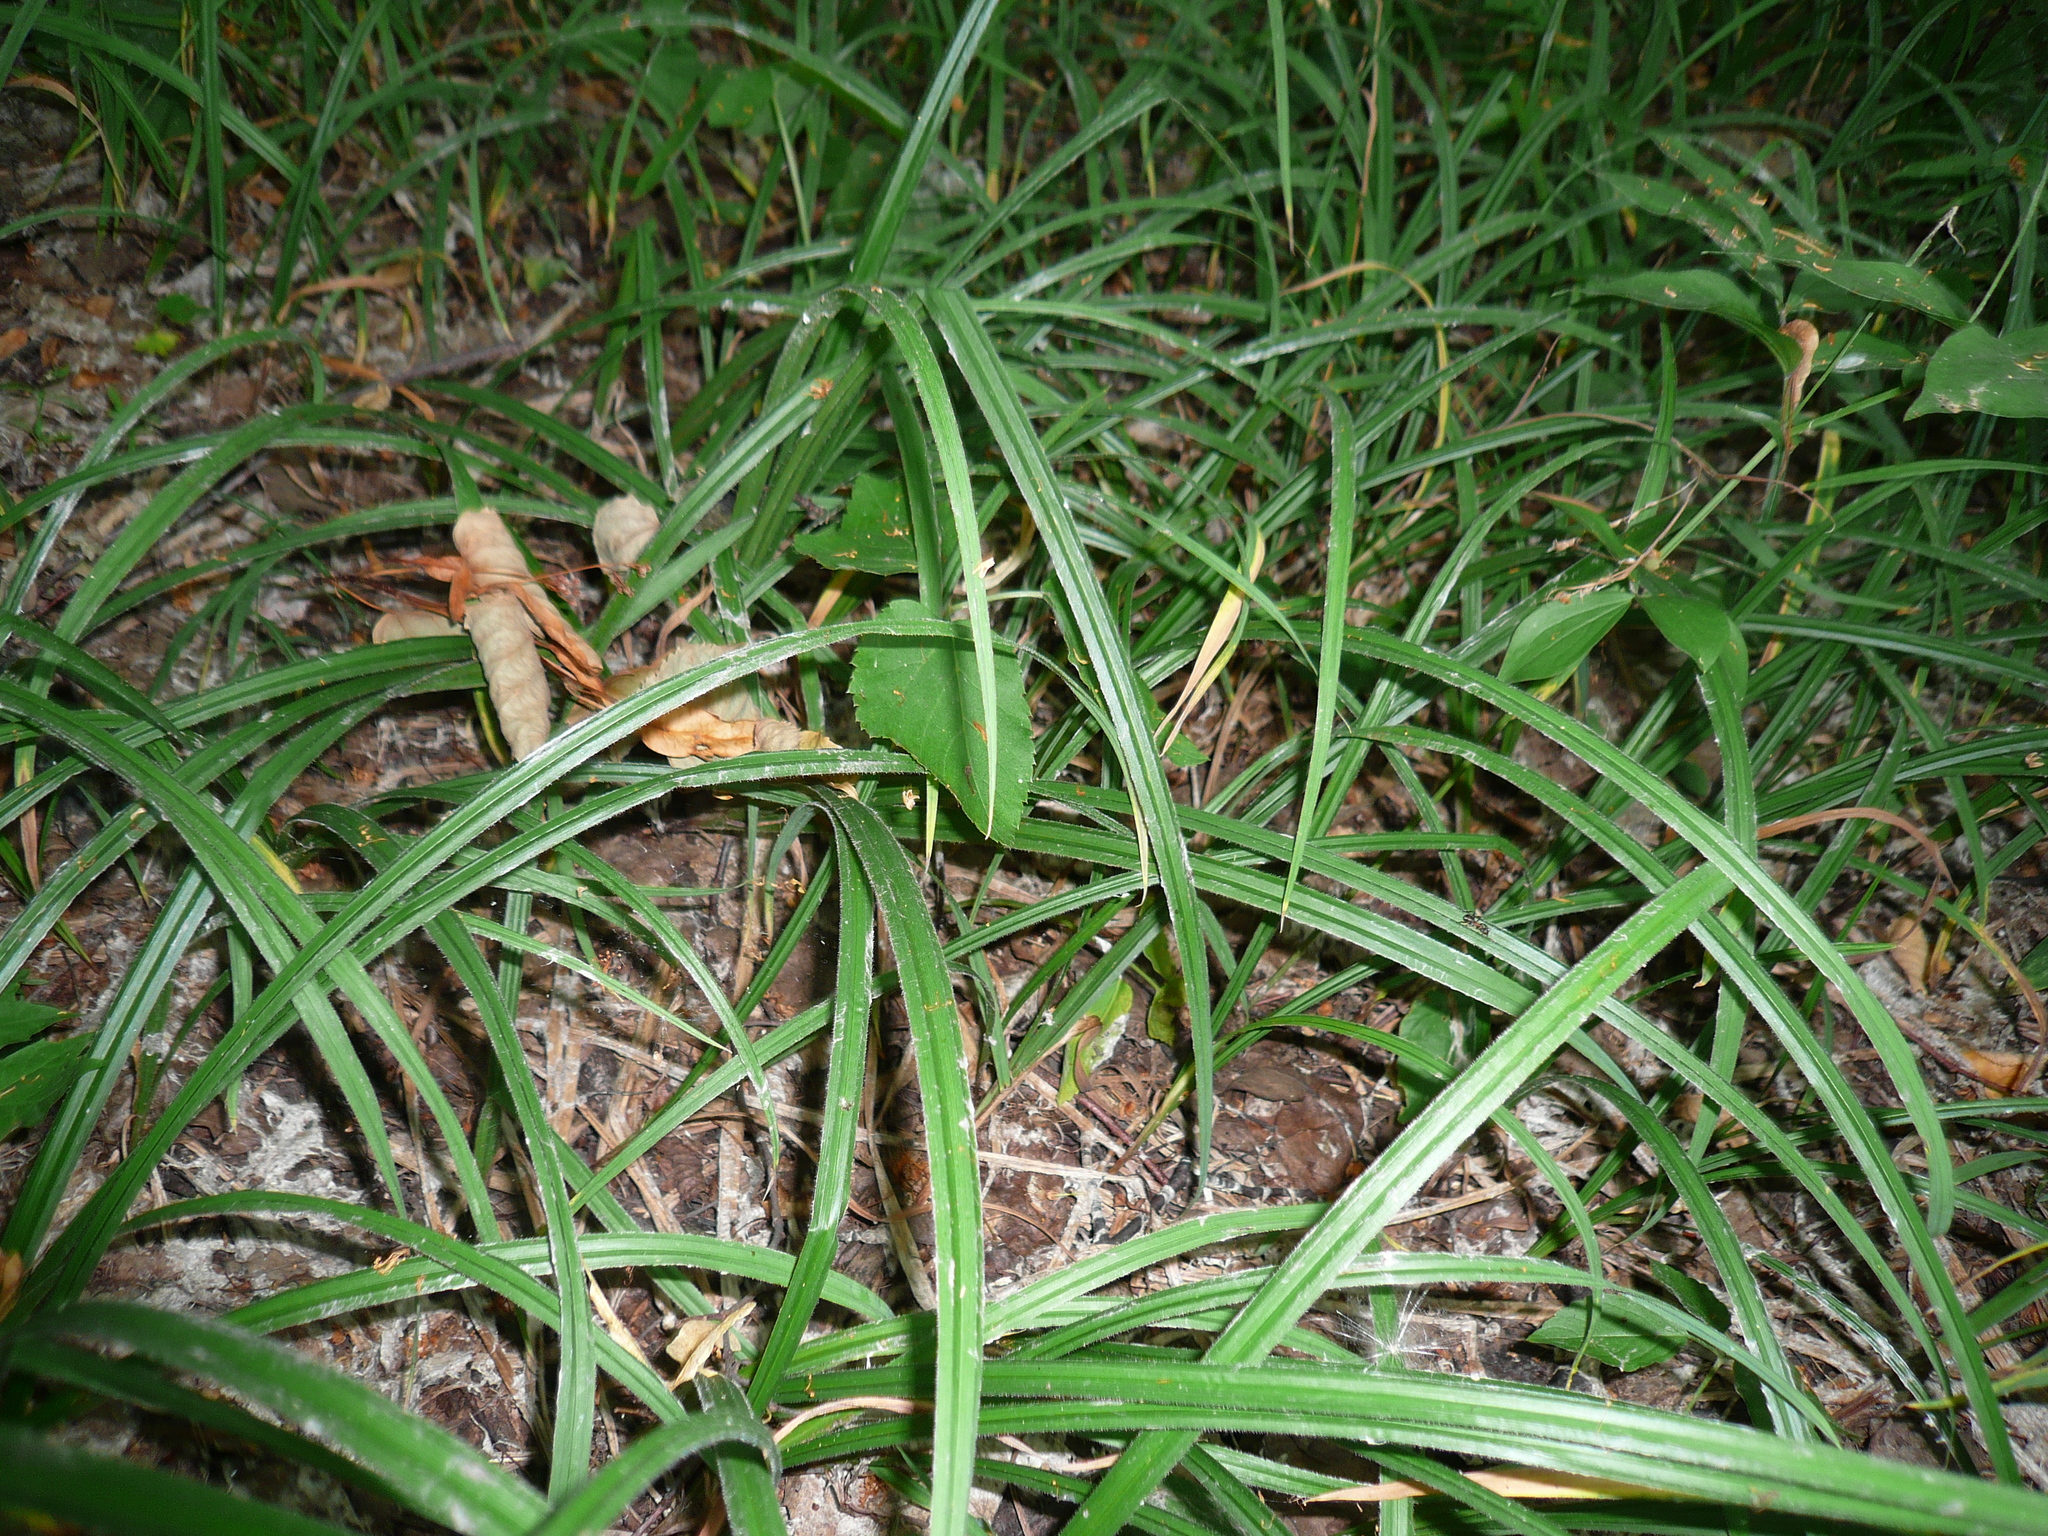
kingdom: Plantae
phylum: Tracheophyta
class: Liliopsida
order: Poales
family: Cyperaceae
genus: Carex
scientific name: Carex pilosa
